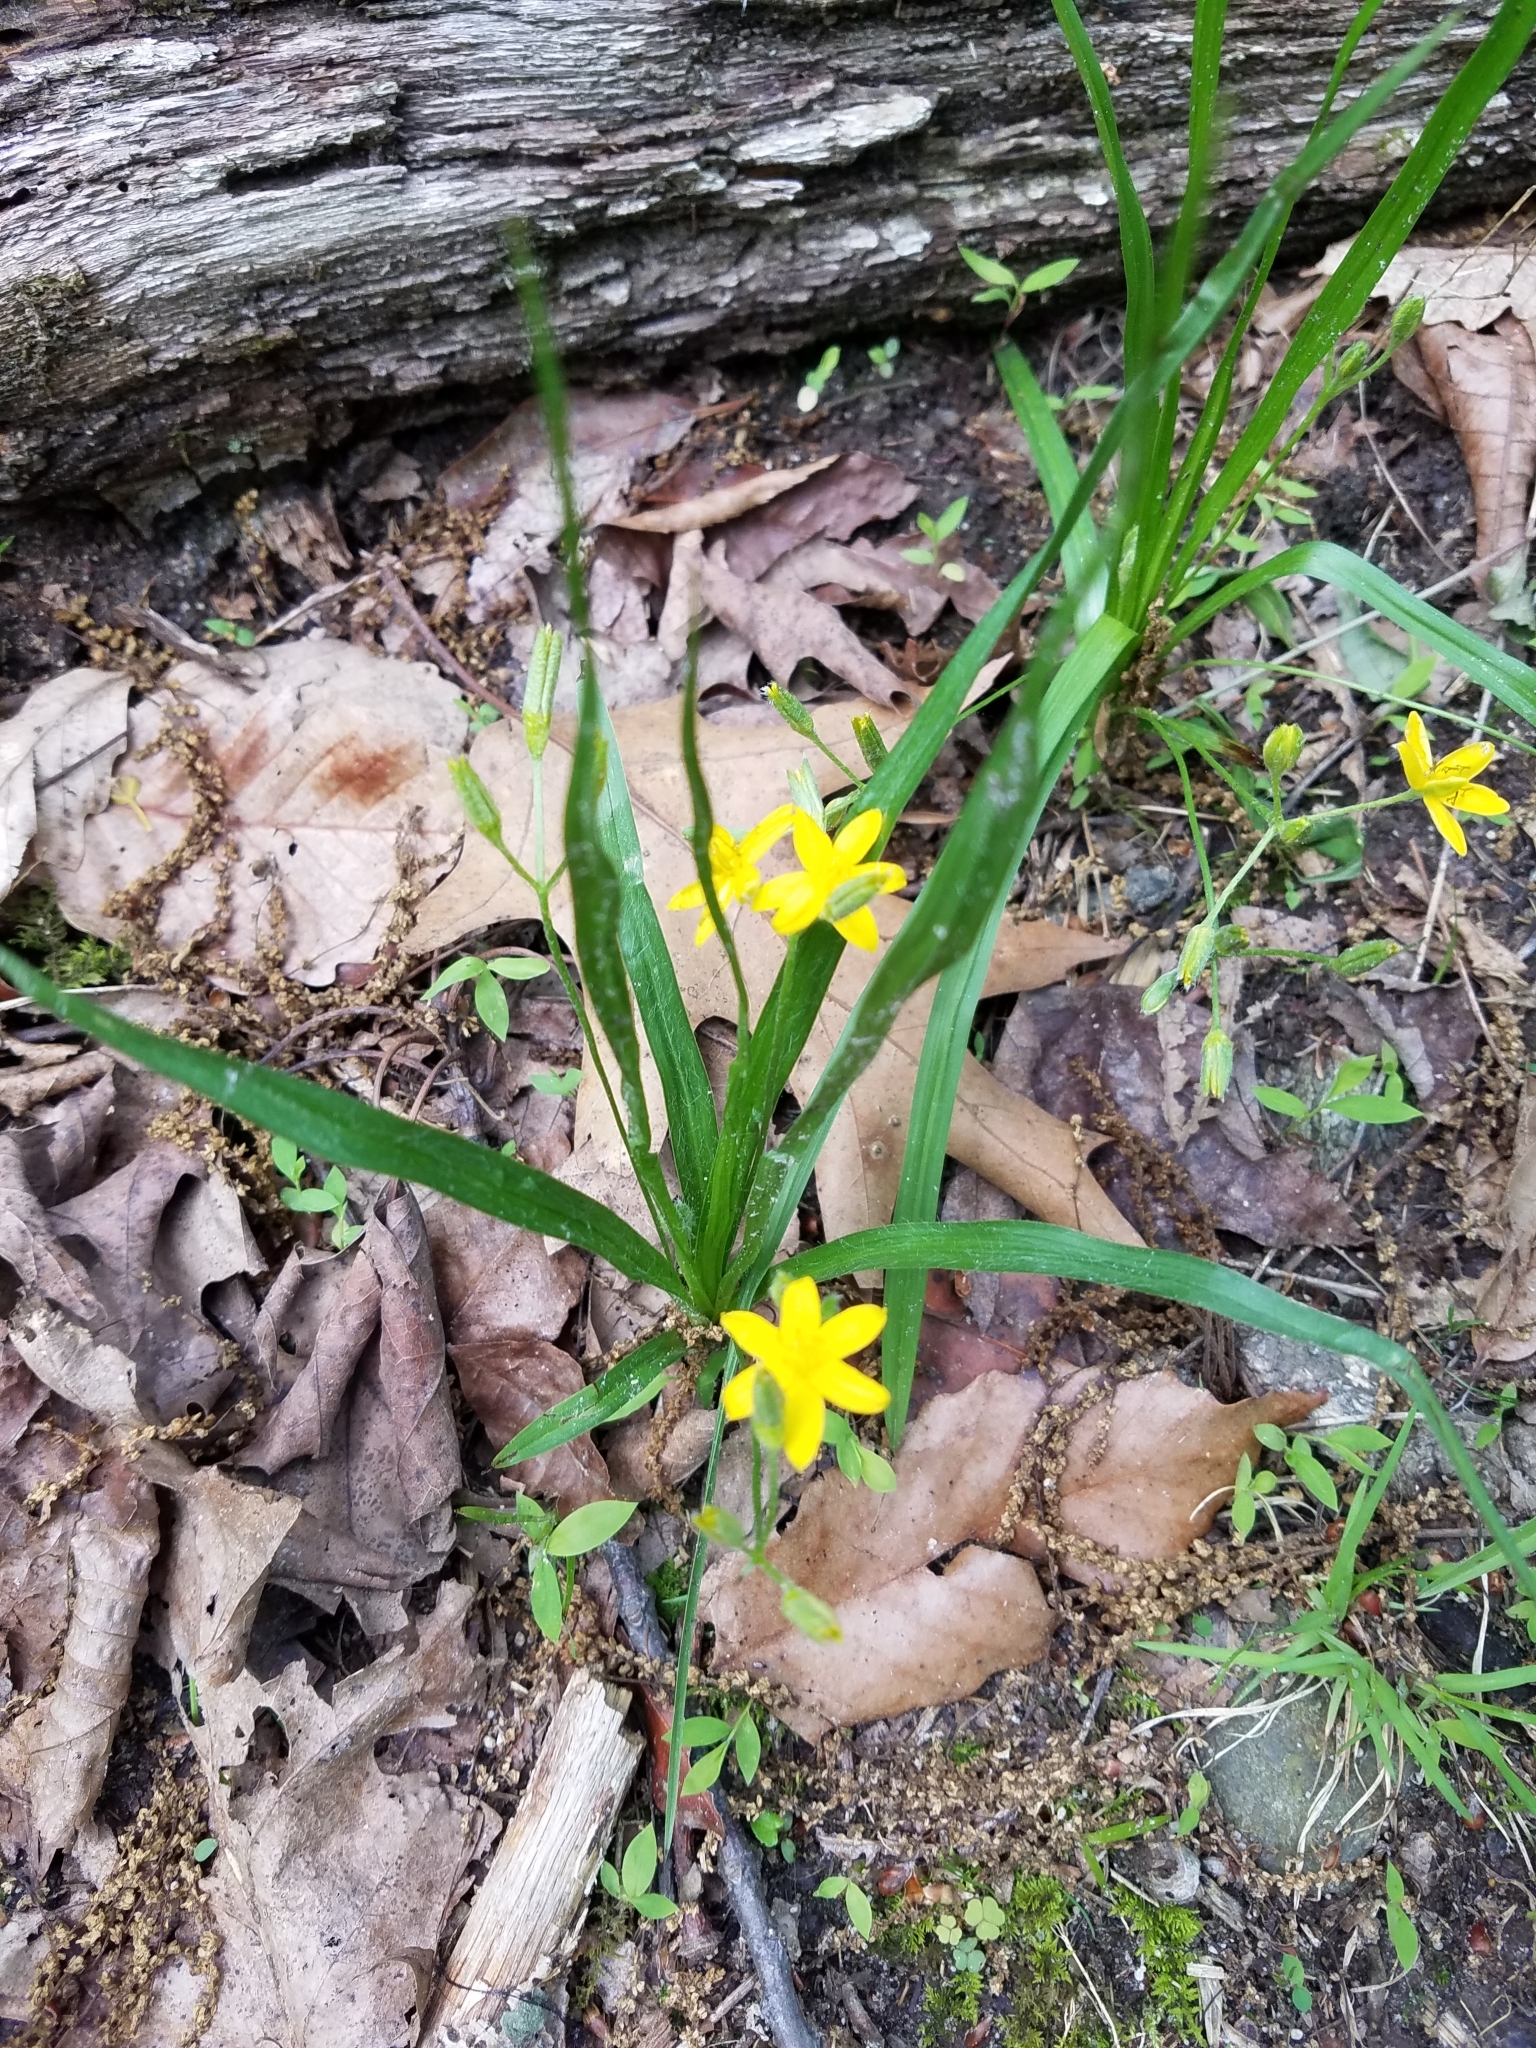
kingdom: Plantae
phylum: Tracheophyta
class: Liliopsida
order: Asparagales
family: Hypoxidaceae
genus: Hypoxis
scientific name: Hypoxis hirsuta
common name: Common goldstar
